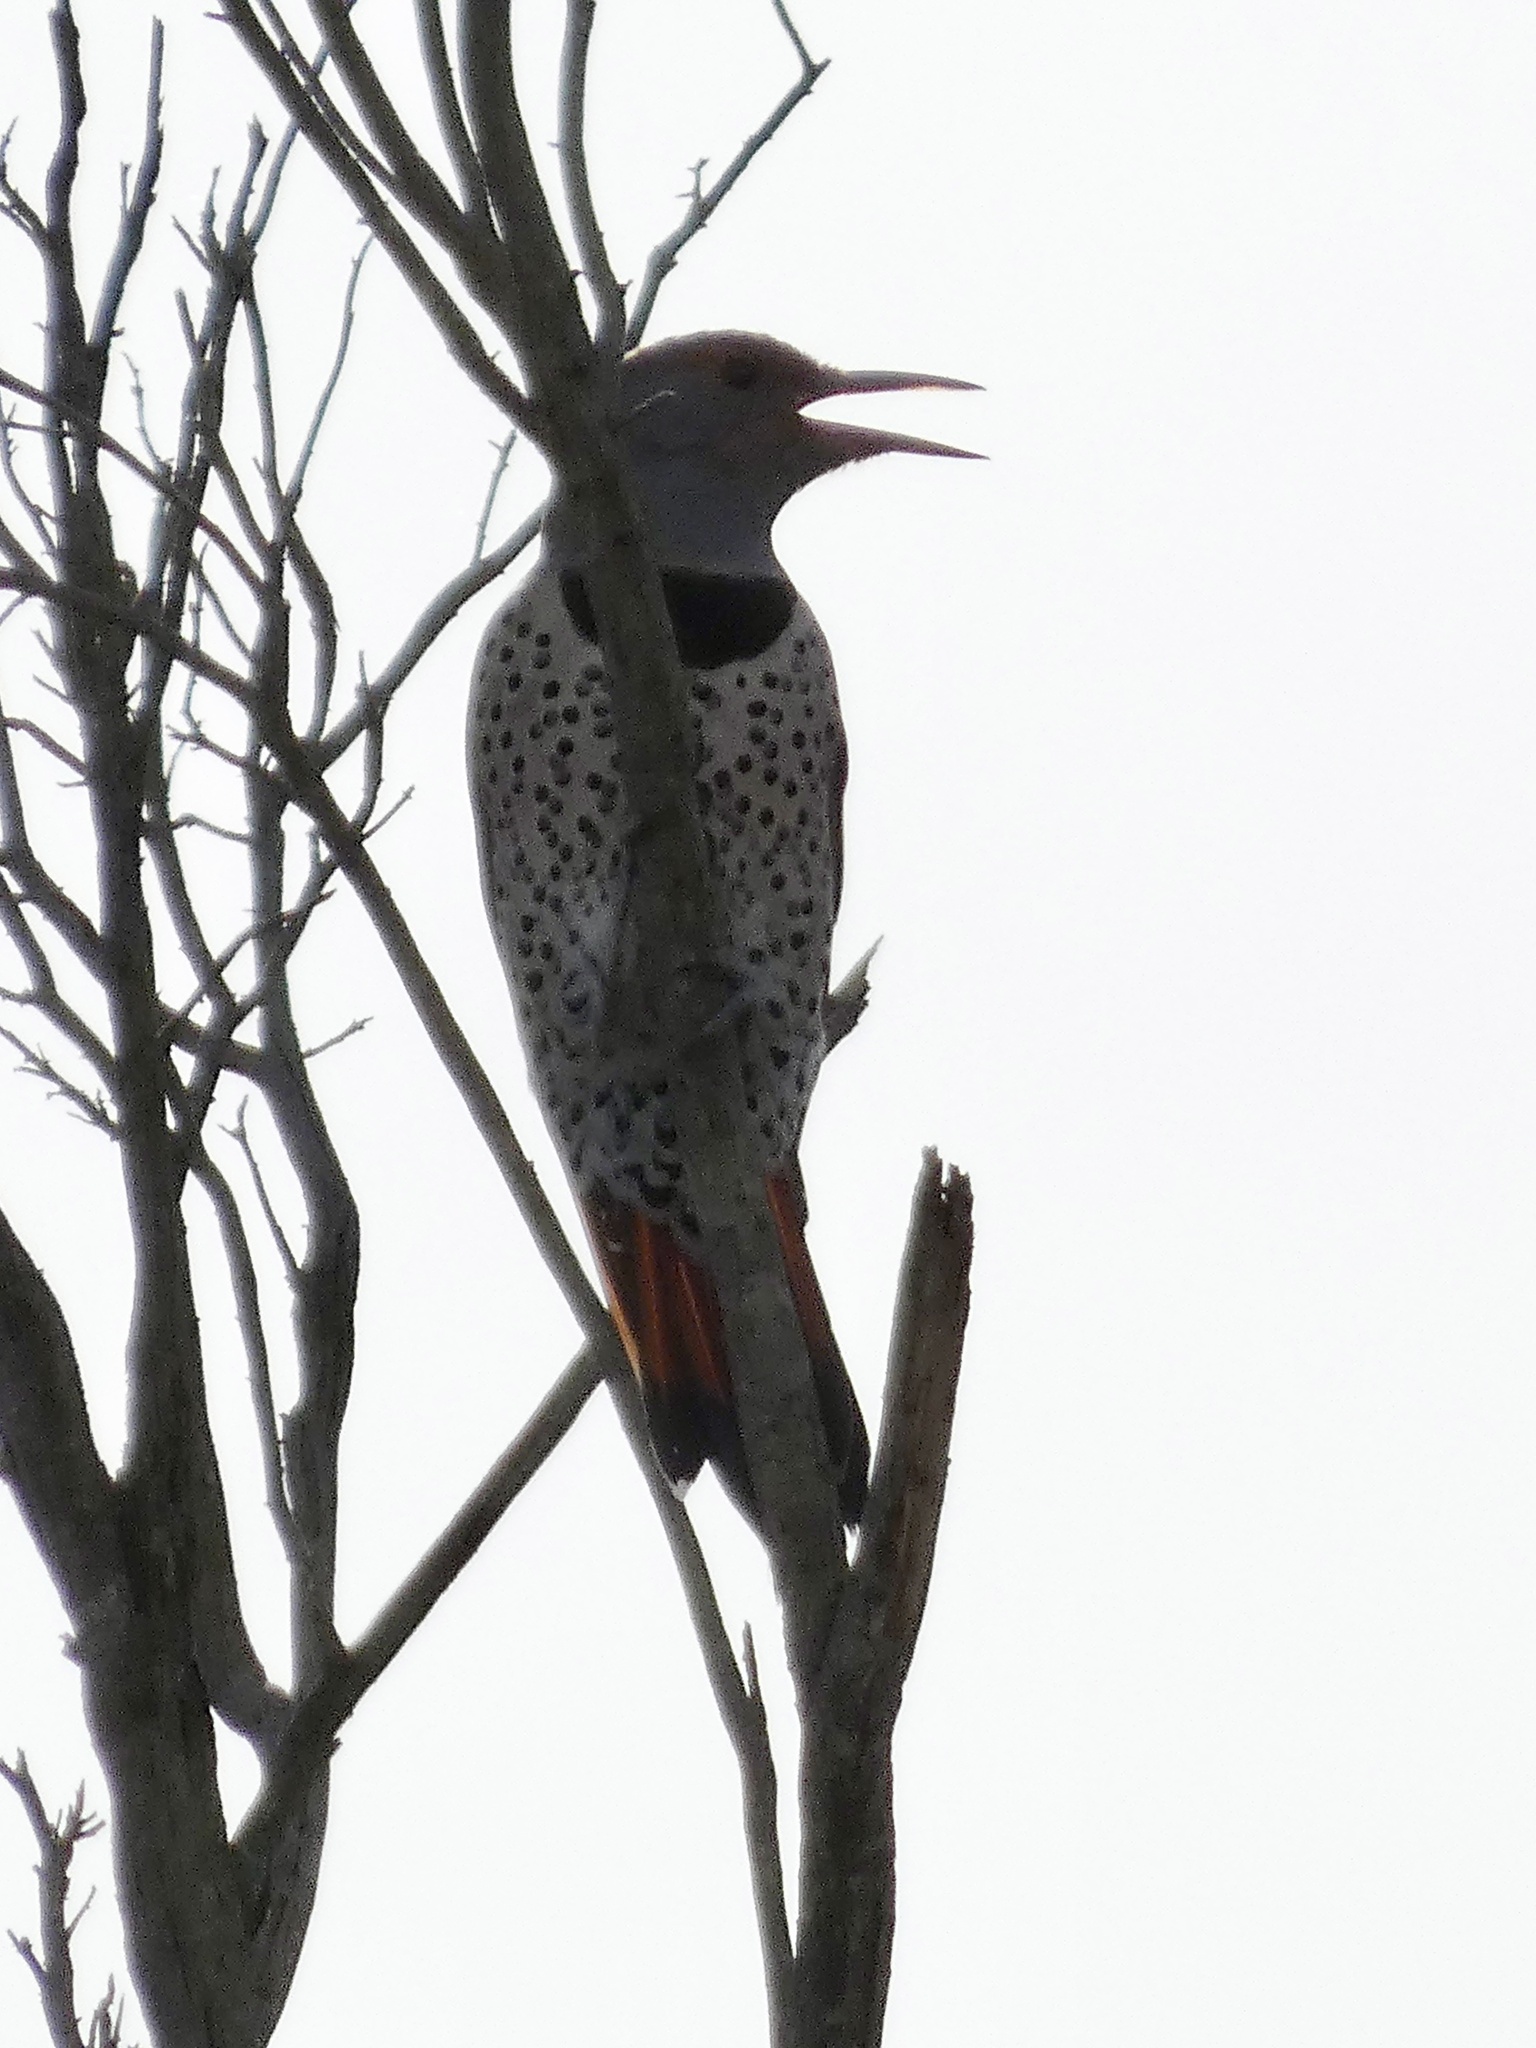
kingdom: Animalia
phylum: Chordata
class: Aves
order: Piciformes
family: Picidae
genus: Colaptes
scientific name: Colaptes auratus
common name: Northern flicker
